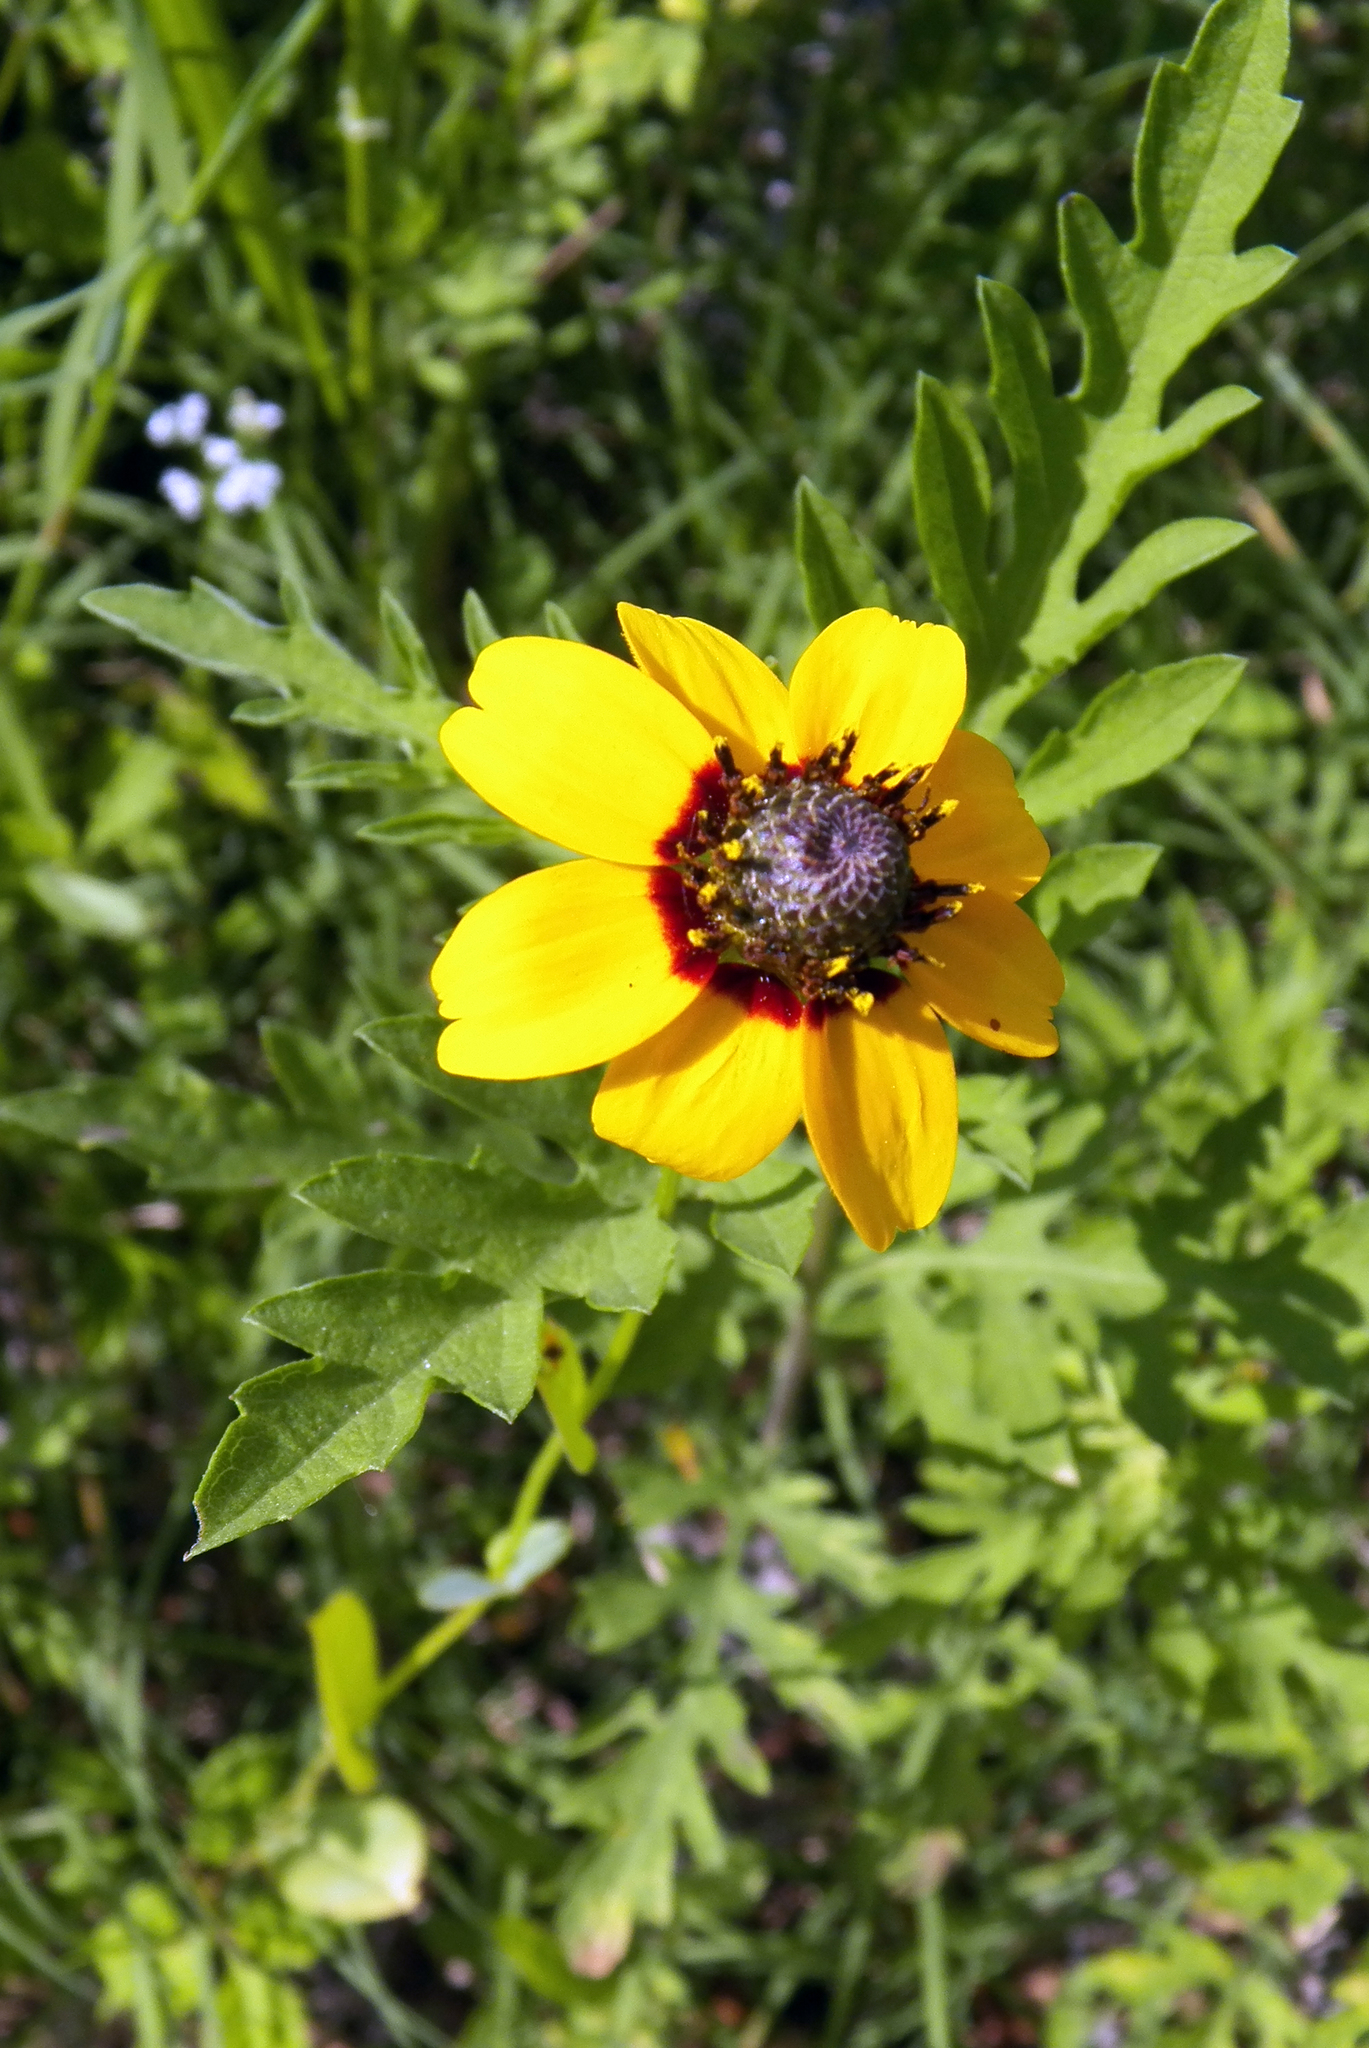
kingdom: Plantae
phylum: Tracheophyta
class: Magnoliopsida
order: Asterales
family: Asteraceae
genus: Rudbeckia
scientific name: Rudbeckia hirta
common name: Black-eyed-susan
